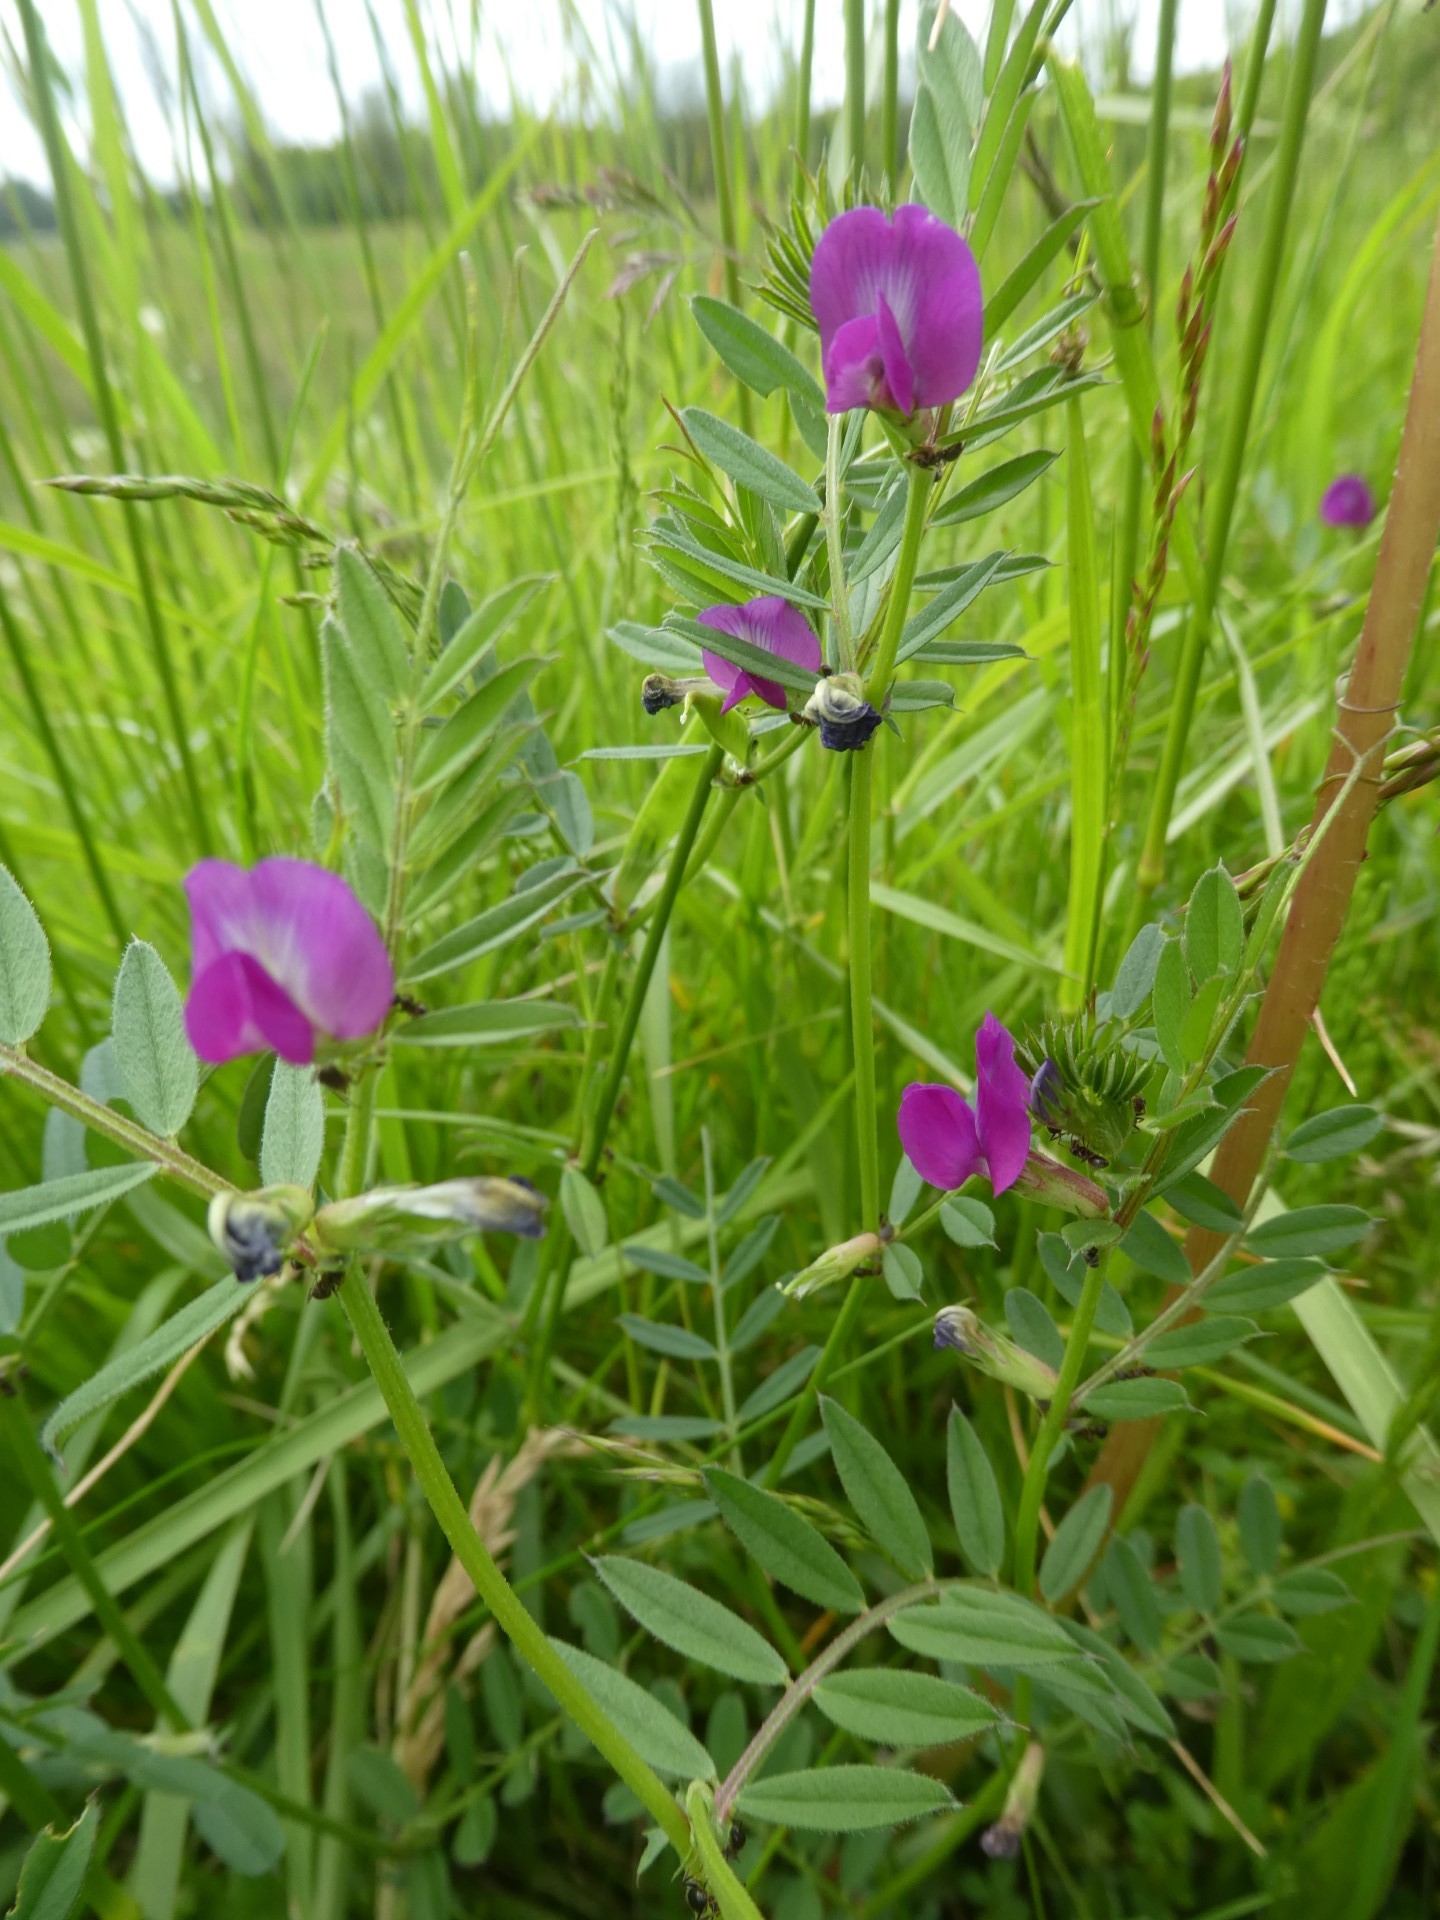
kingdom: Plantae
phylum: Tracheophyta
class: Magnoliopsida
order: Fabales
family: Fabaceae
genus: Vicia
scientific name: Vicia sativa
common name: Garden vetch
